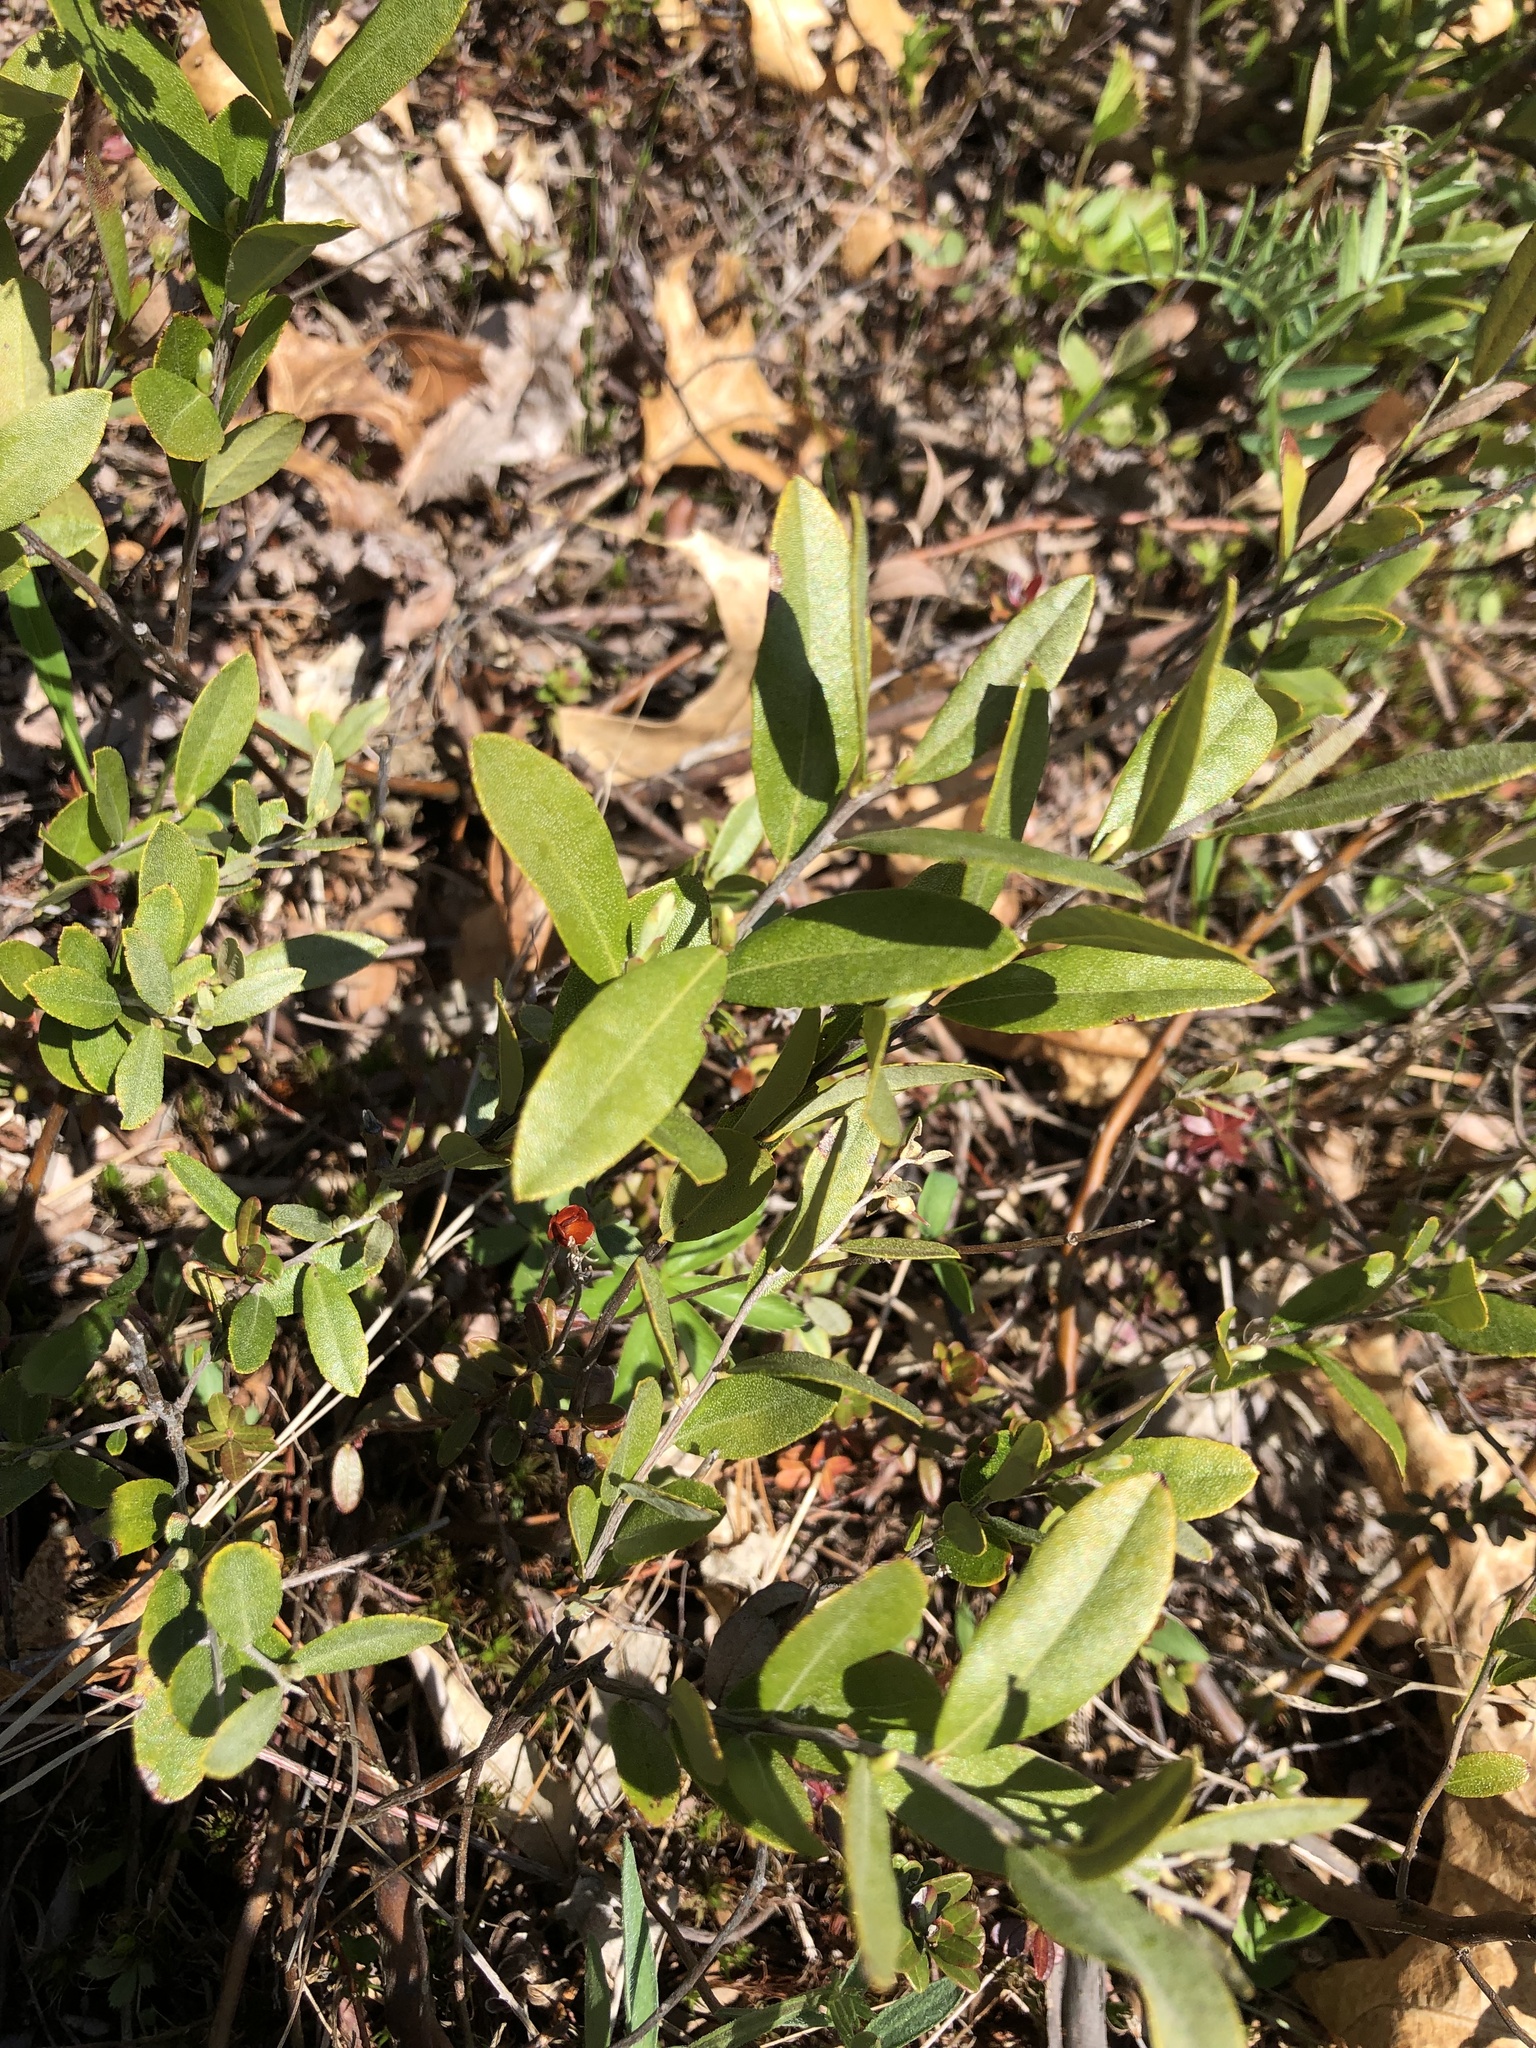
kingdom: Plantae
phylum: Tracheophyta
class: Magnoliopsida
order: Ericales
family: Ericaceae
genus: Chamaedaphne
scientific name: Chamaedaphne calyculata
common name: Leatherleaf
